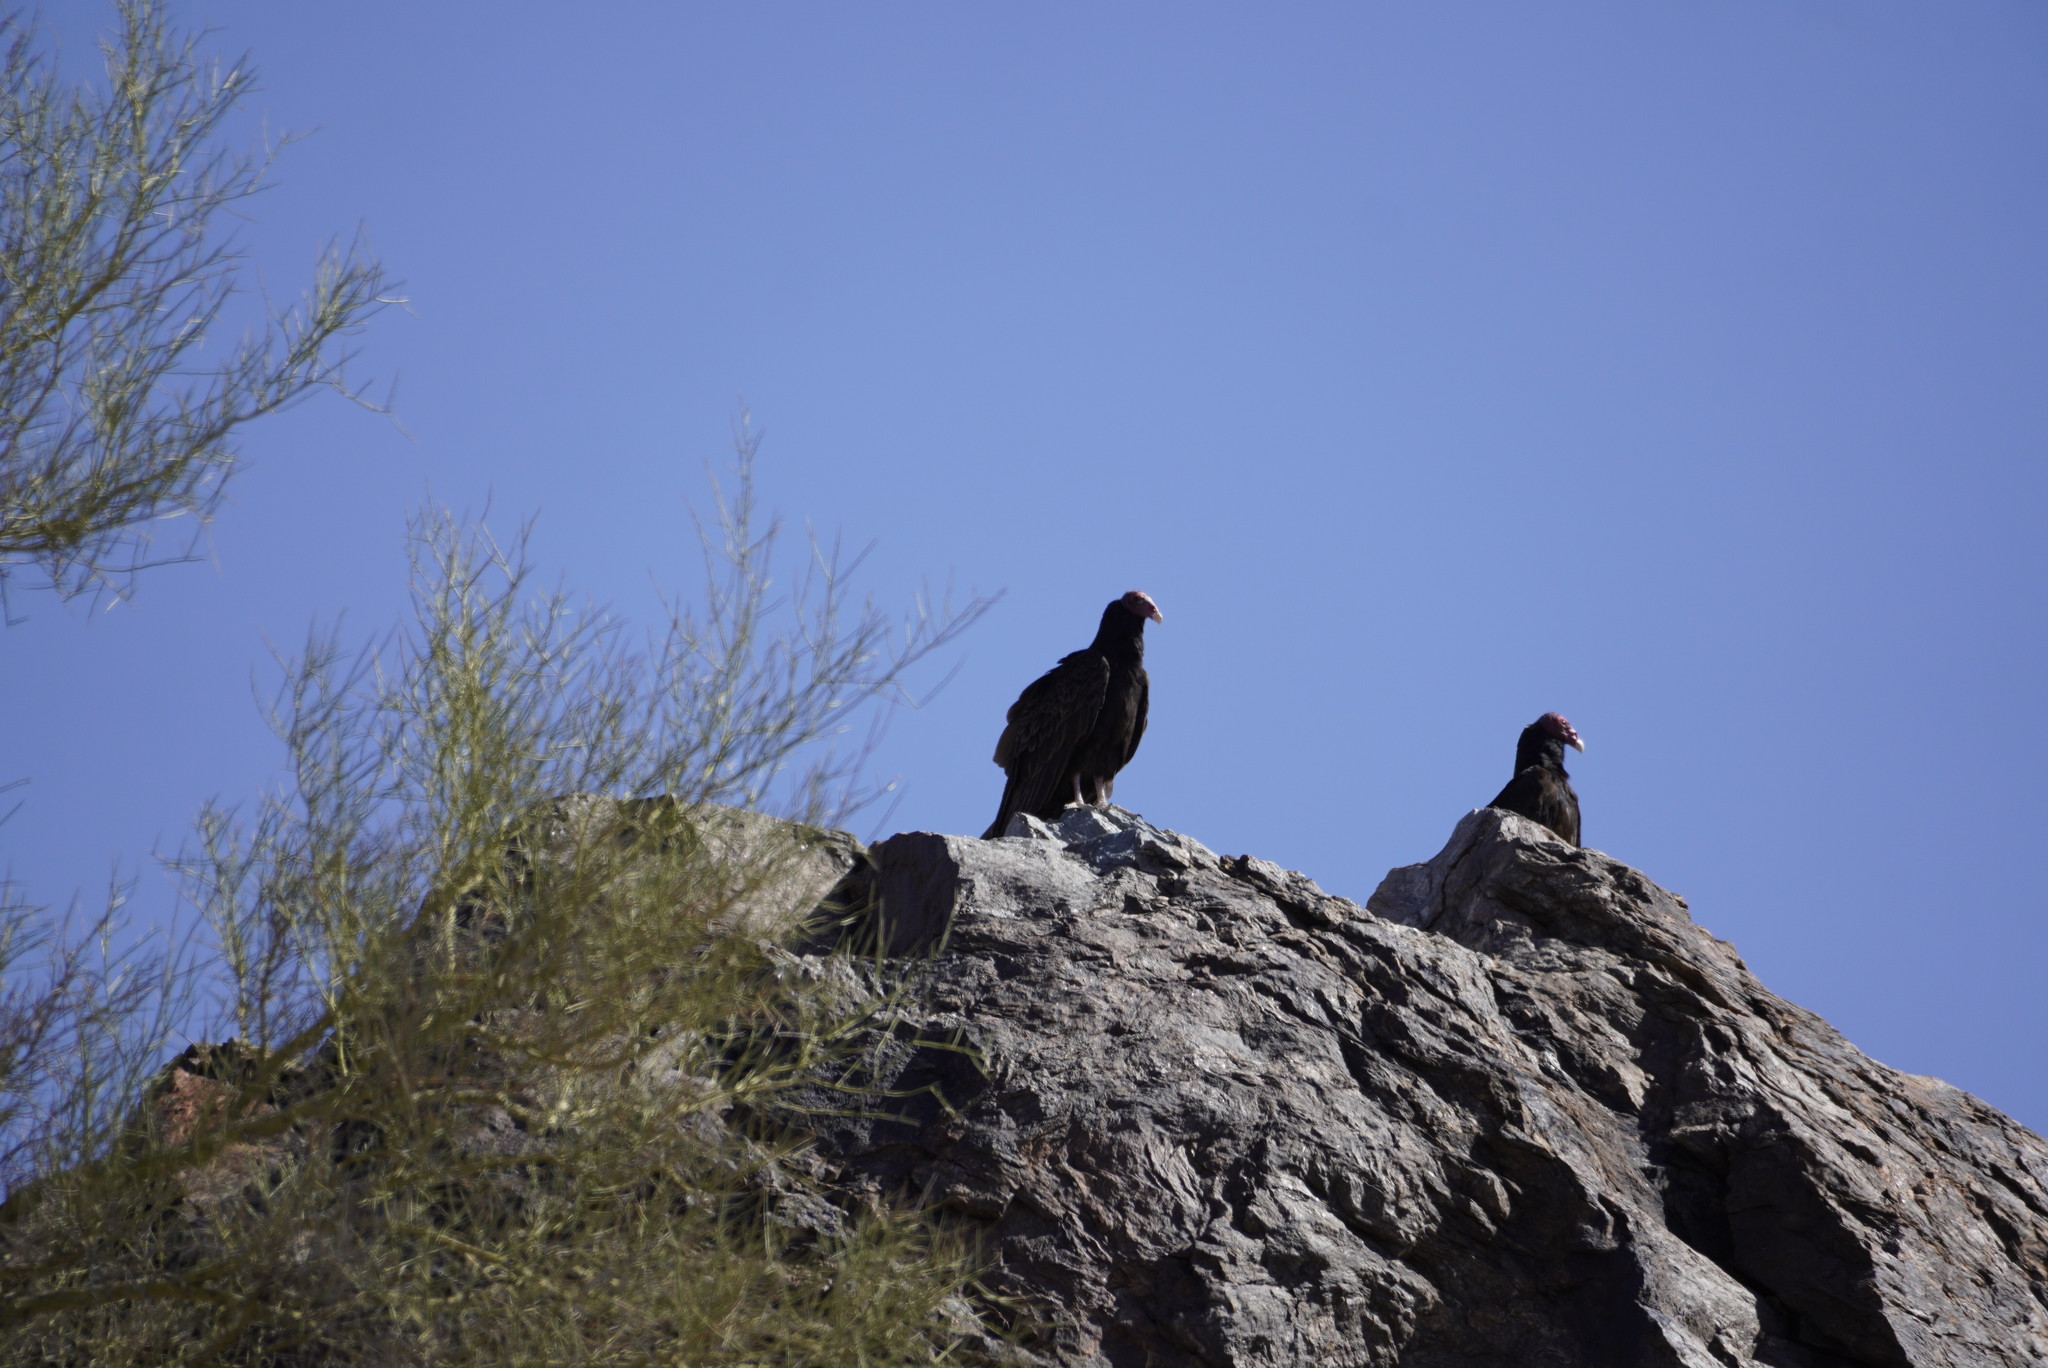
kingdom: Animalia
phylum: Chordata
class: Aves
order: Accipitriformes
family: Cathartidae
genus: Cathartes
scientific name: Cathartes aura
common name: Turkey vulture
